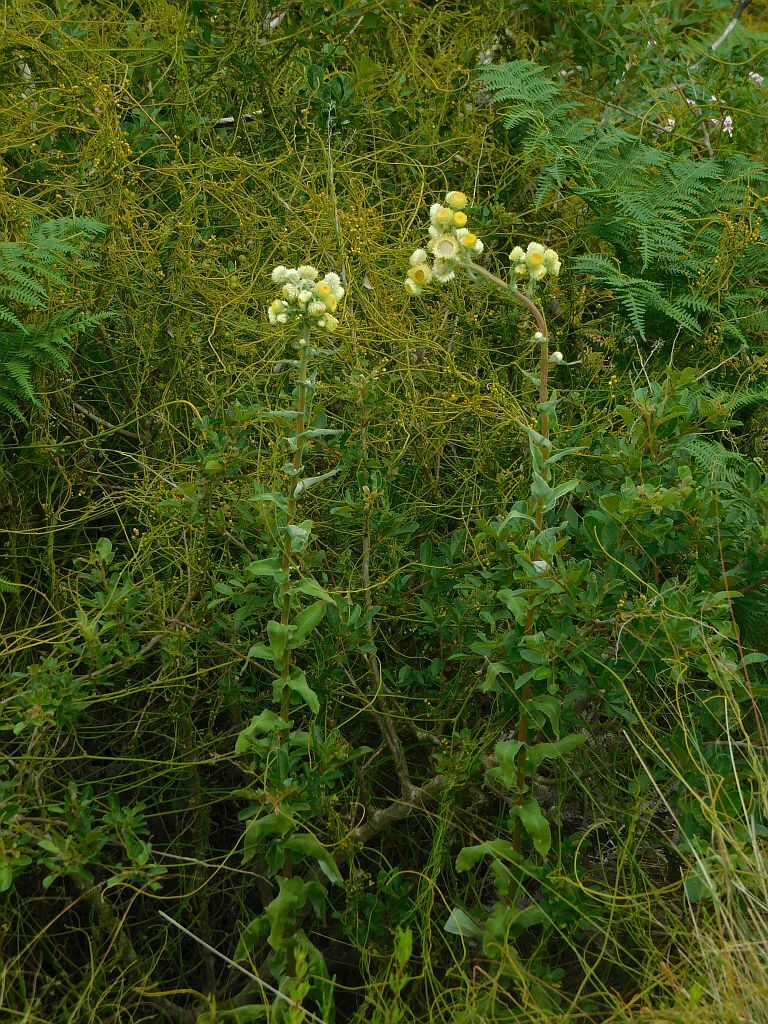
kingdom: Plantae
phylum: Tracheophyta
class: Magnoliopsida
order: Asterales
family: Asteraceae
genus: Helichrysum
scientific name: Helichrysum foetidum
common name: Stinking everlasting
